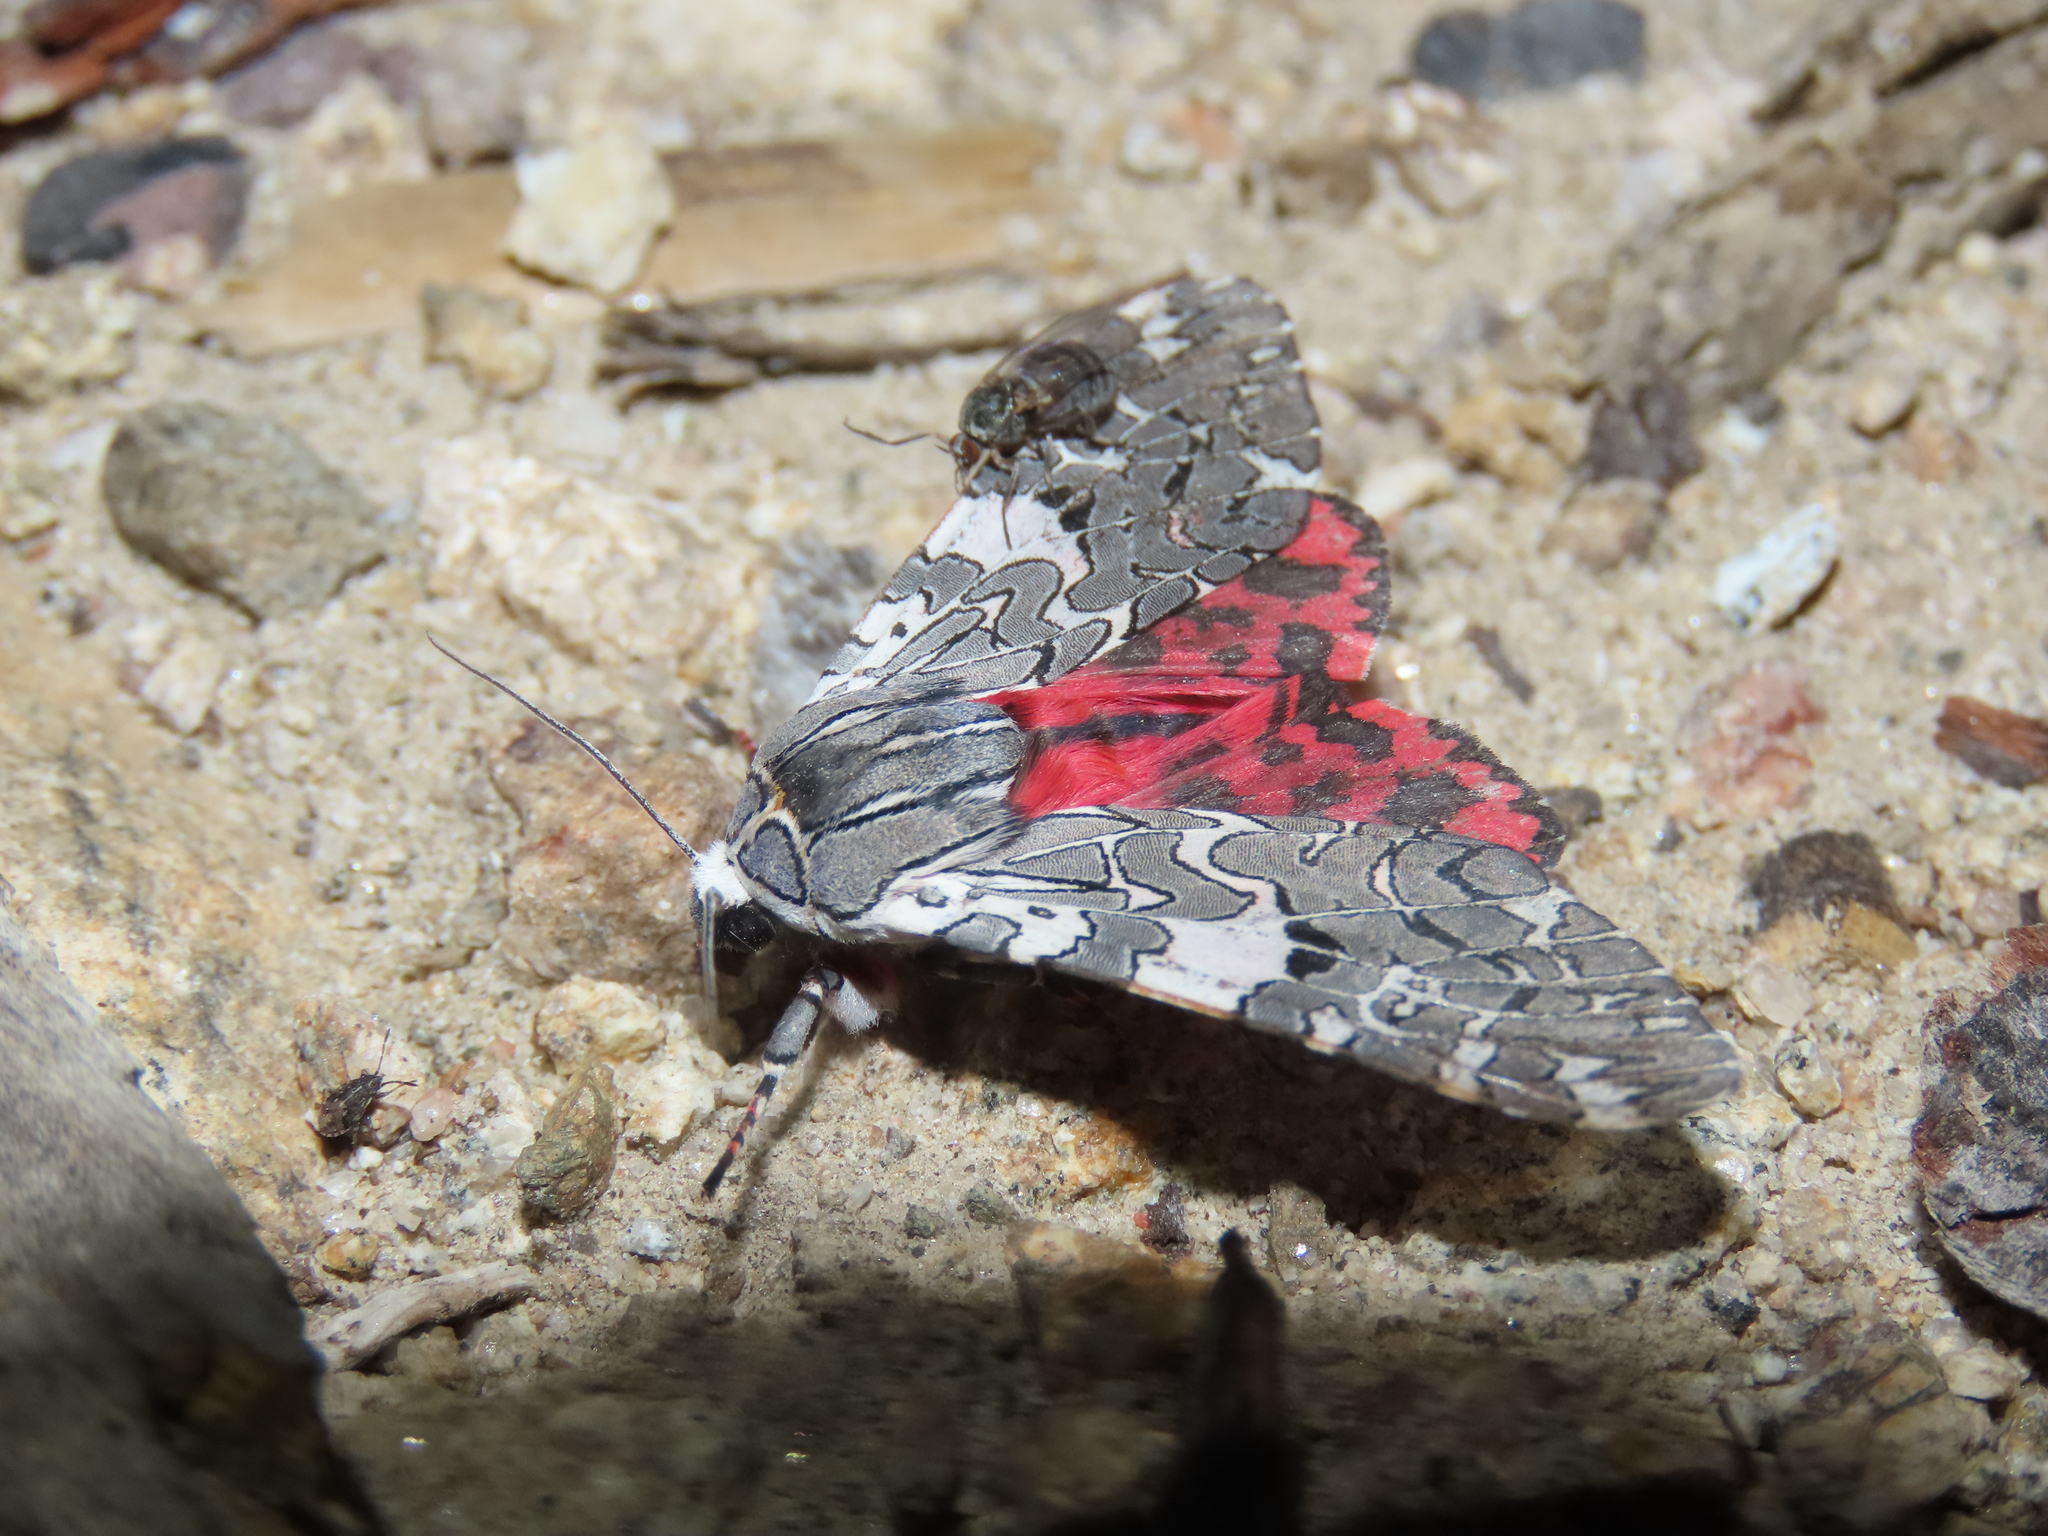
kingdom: Animalia
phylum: Arthropoda
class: Insecta
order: Lepidoptera
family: Erebidae
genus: Arachnis
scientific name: Arachnis picta
